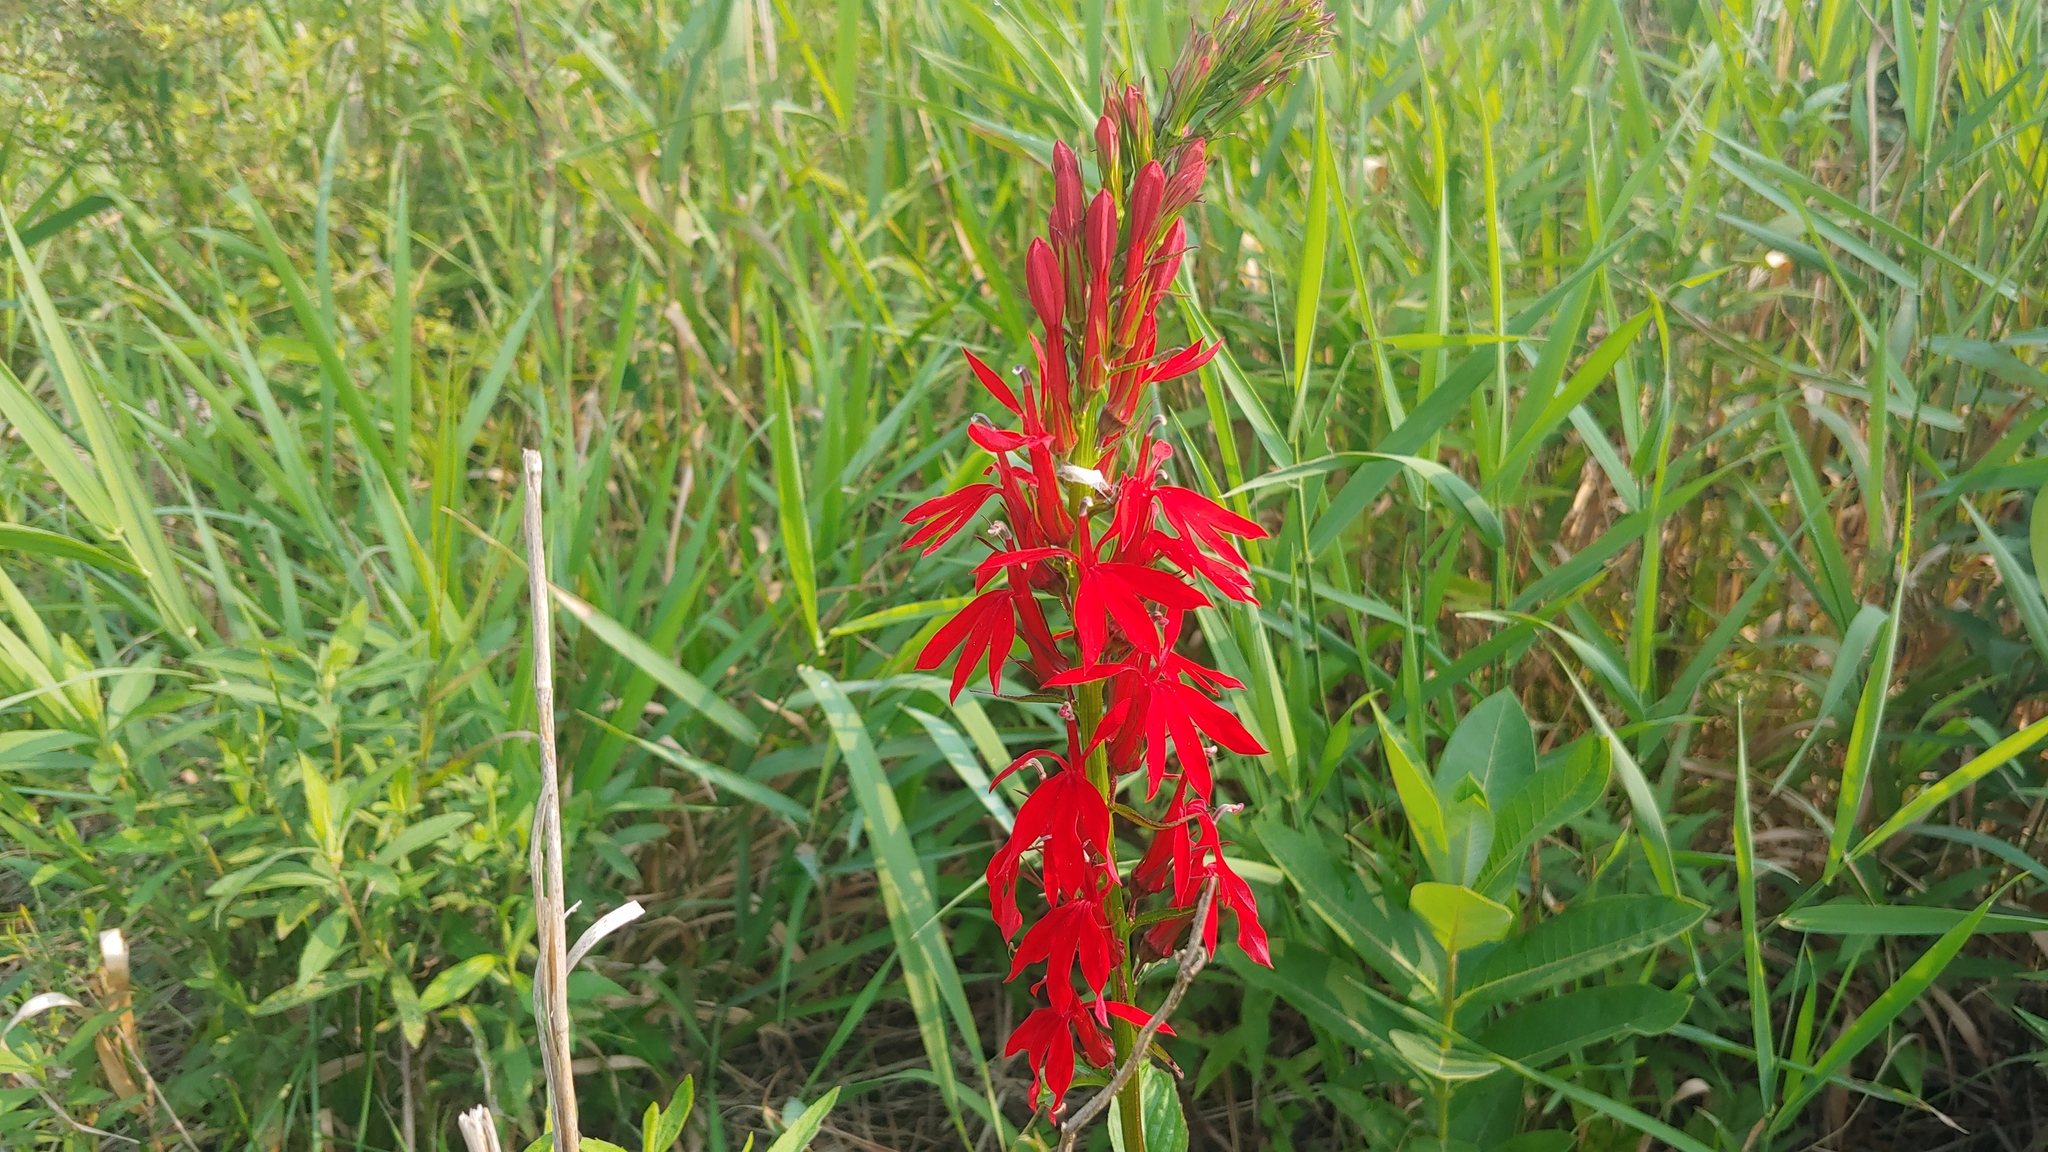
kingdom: Plantae
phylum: Tracheophyta
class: Magnoliopsida
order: Asterales
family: Campanulaceae
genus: Lobelia
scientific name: Lobelia cardinalis
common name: Cardinal flower
